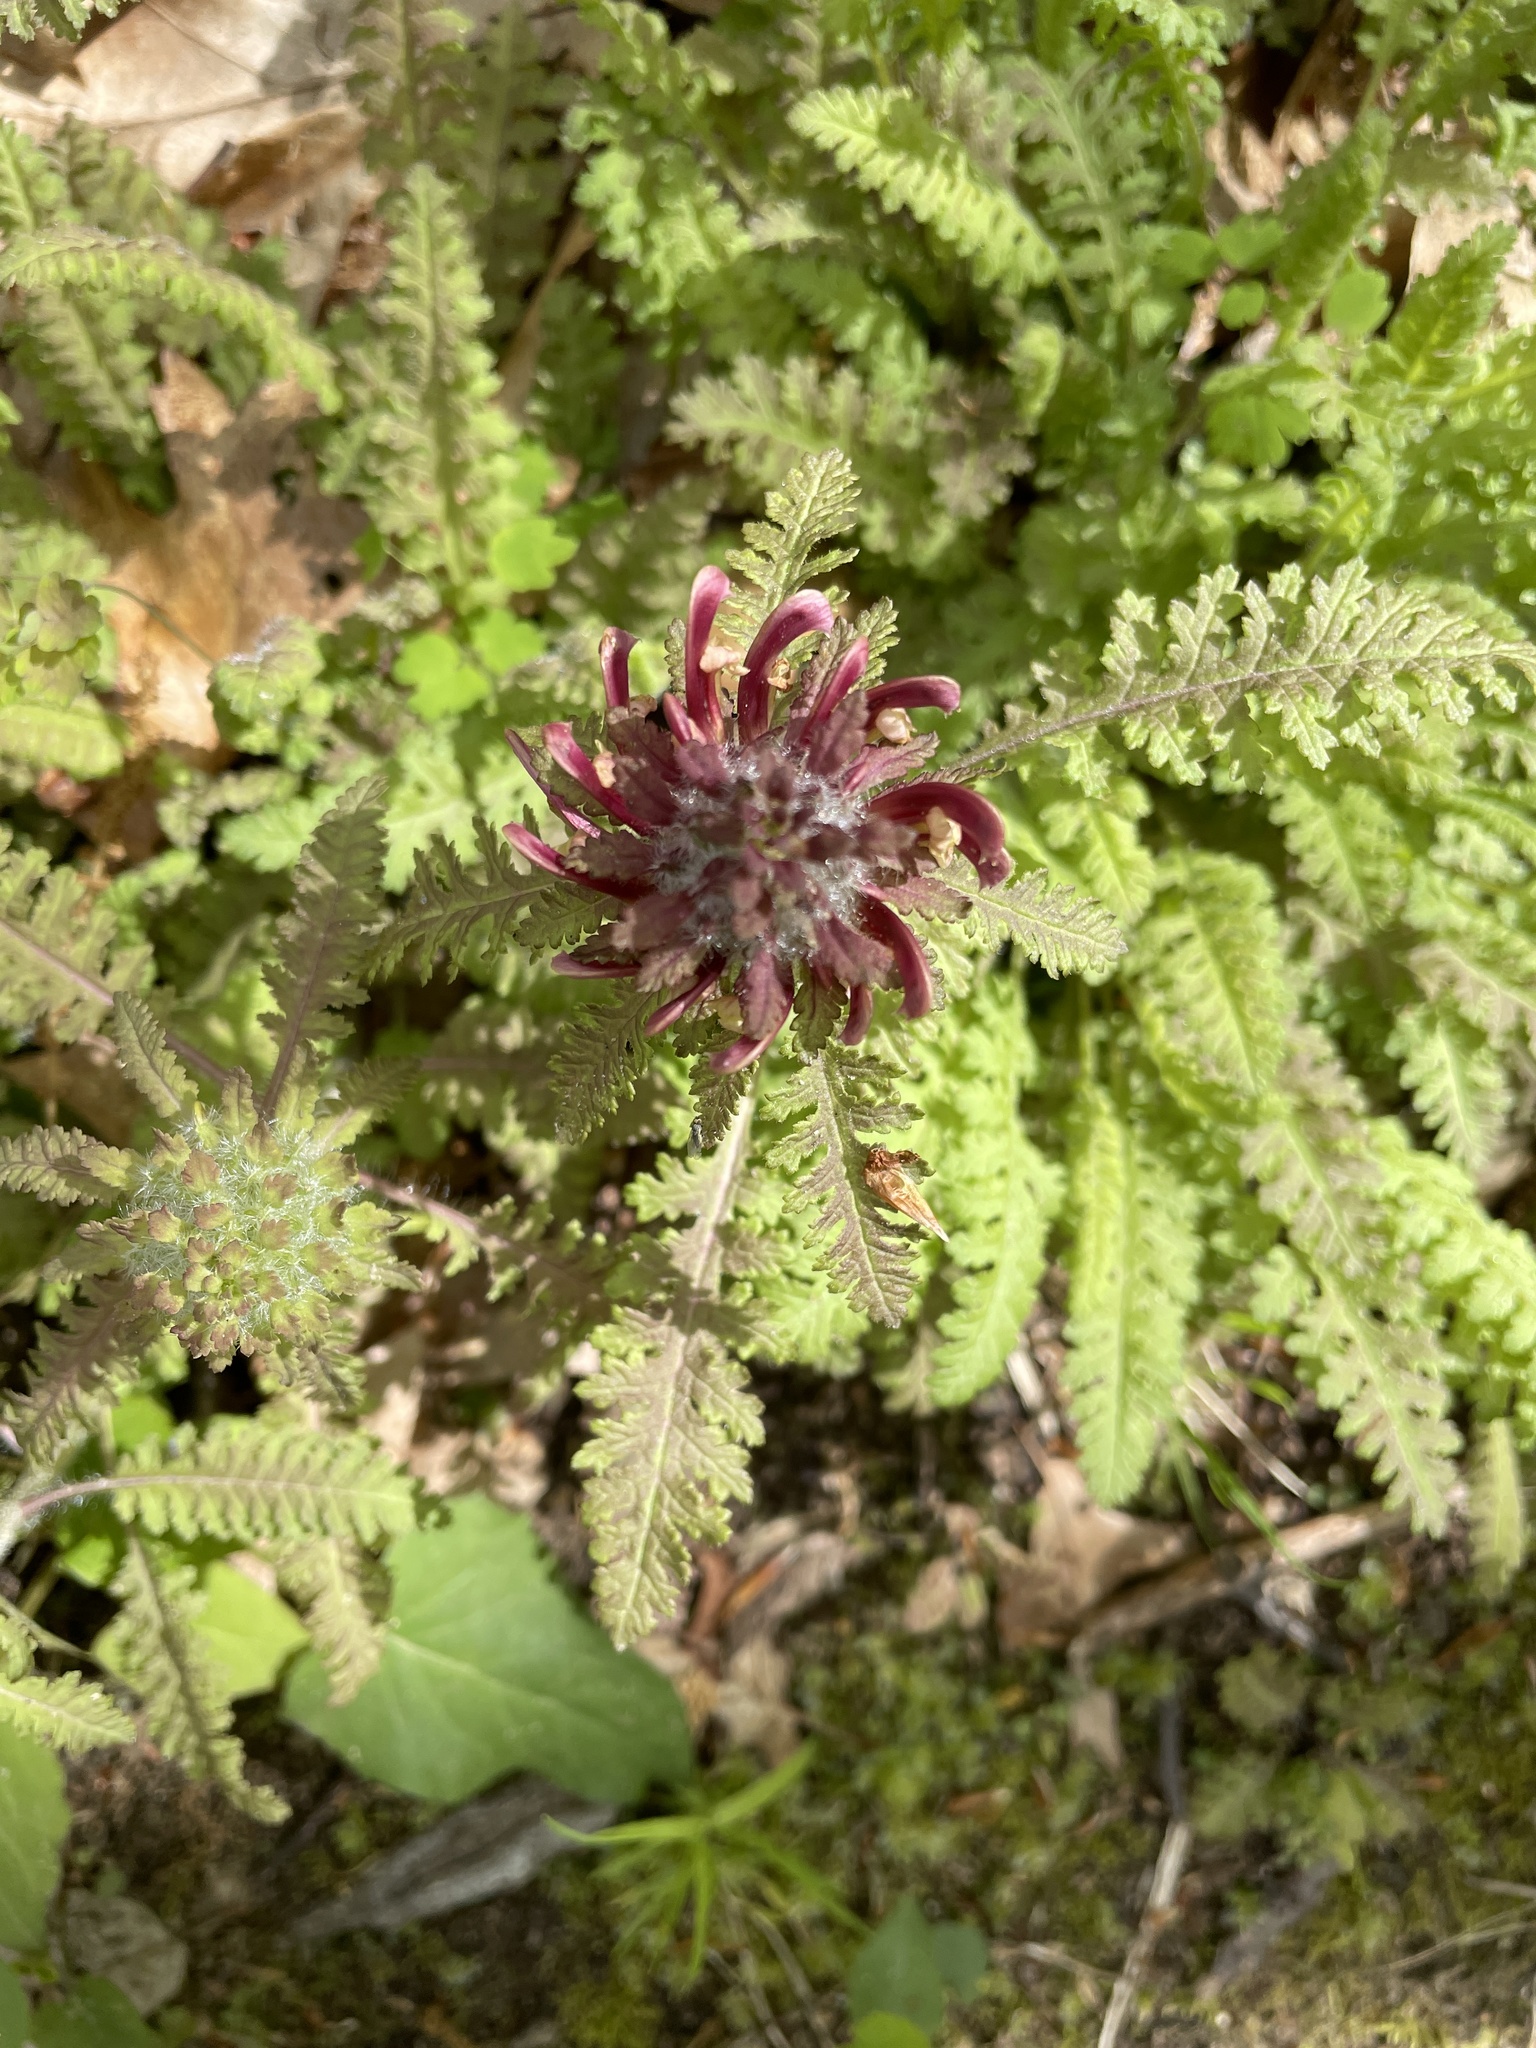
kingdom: Plantae
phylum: Tracheophyta
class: Magnoliopsida
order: Lamiales
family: Orobanchaceae
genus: Pedicularis
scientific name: Pedicularis canadensis
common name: Early lousewort
